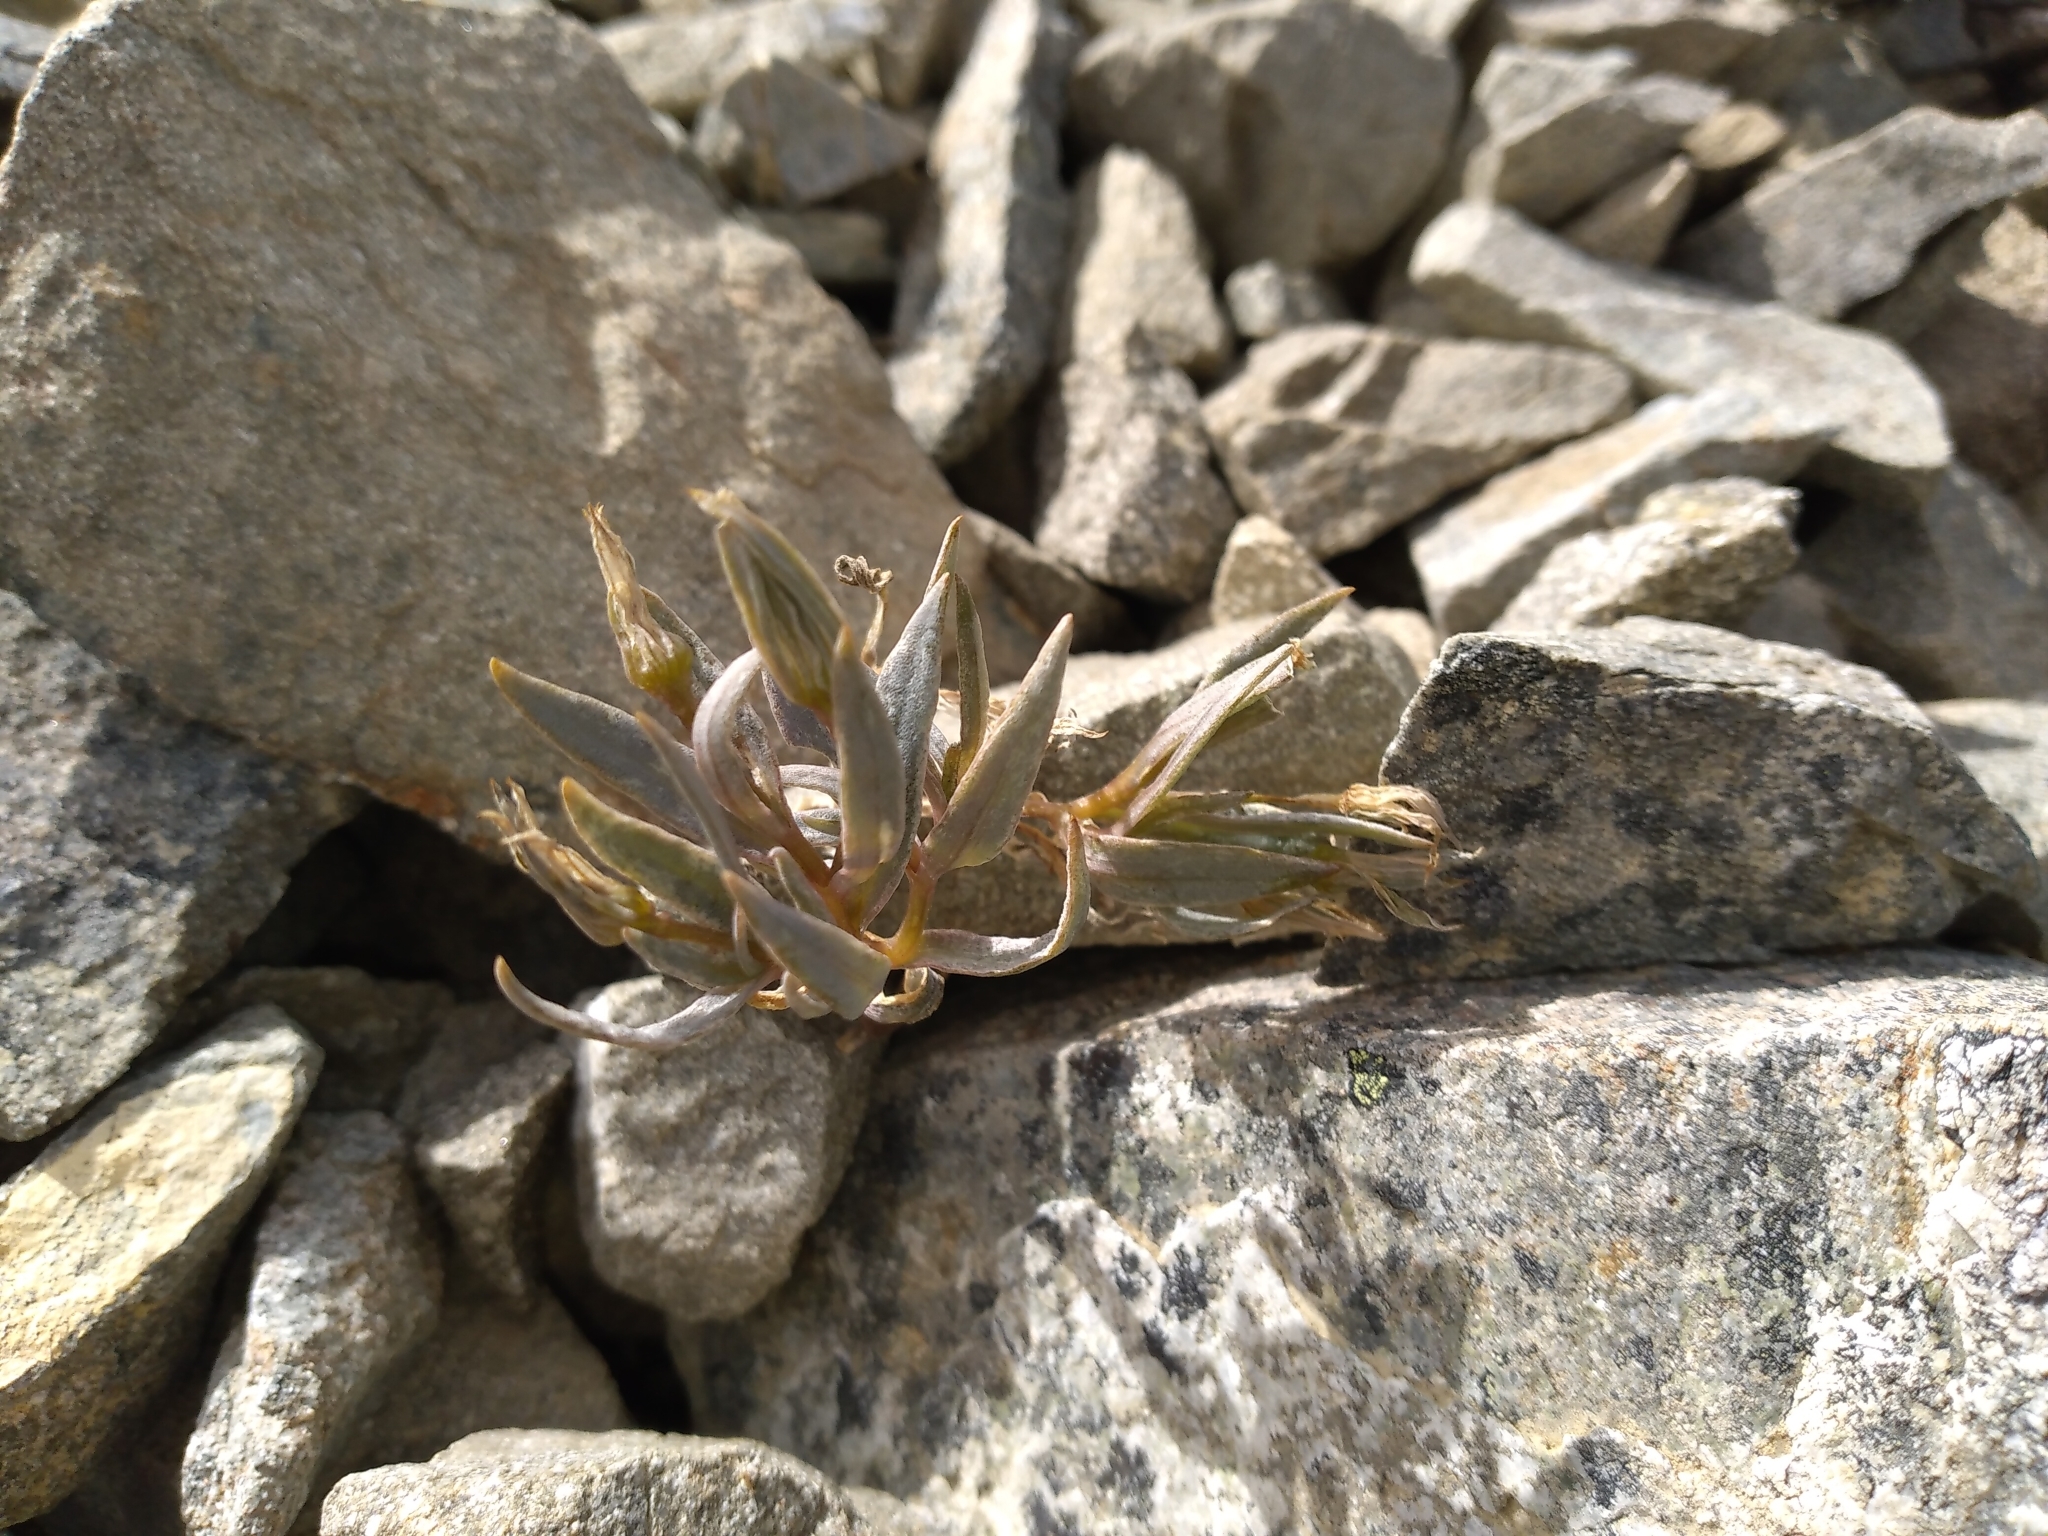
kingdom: Plantae
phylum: Tracheophyta
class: Magnoliopsida
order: Caryophyllales
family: Caryophyllaceae
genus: Stellaria
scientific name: Stellaria roughii
